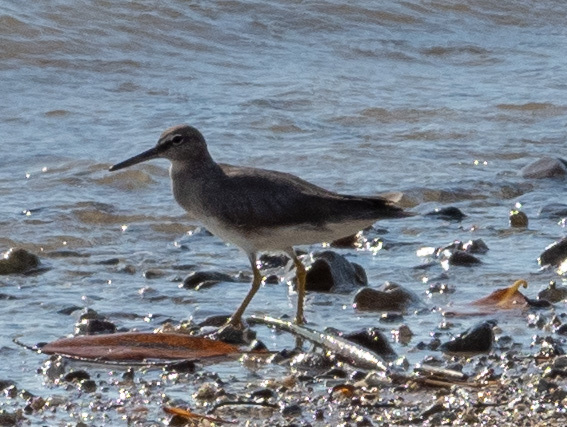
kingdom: Animalia
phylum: Chordata
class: Aves
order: Charadriiformes
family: Scolopacidae
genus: Tringa
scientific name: Tringa incana
